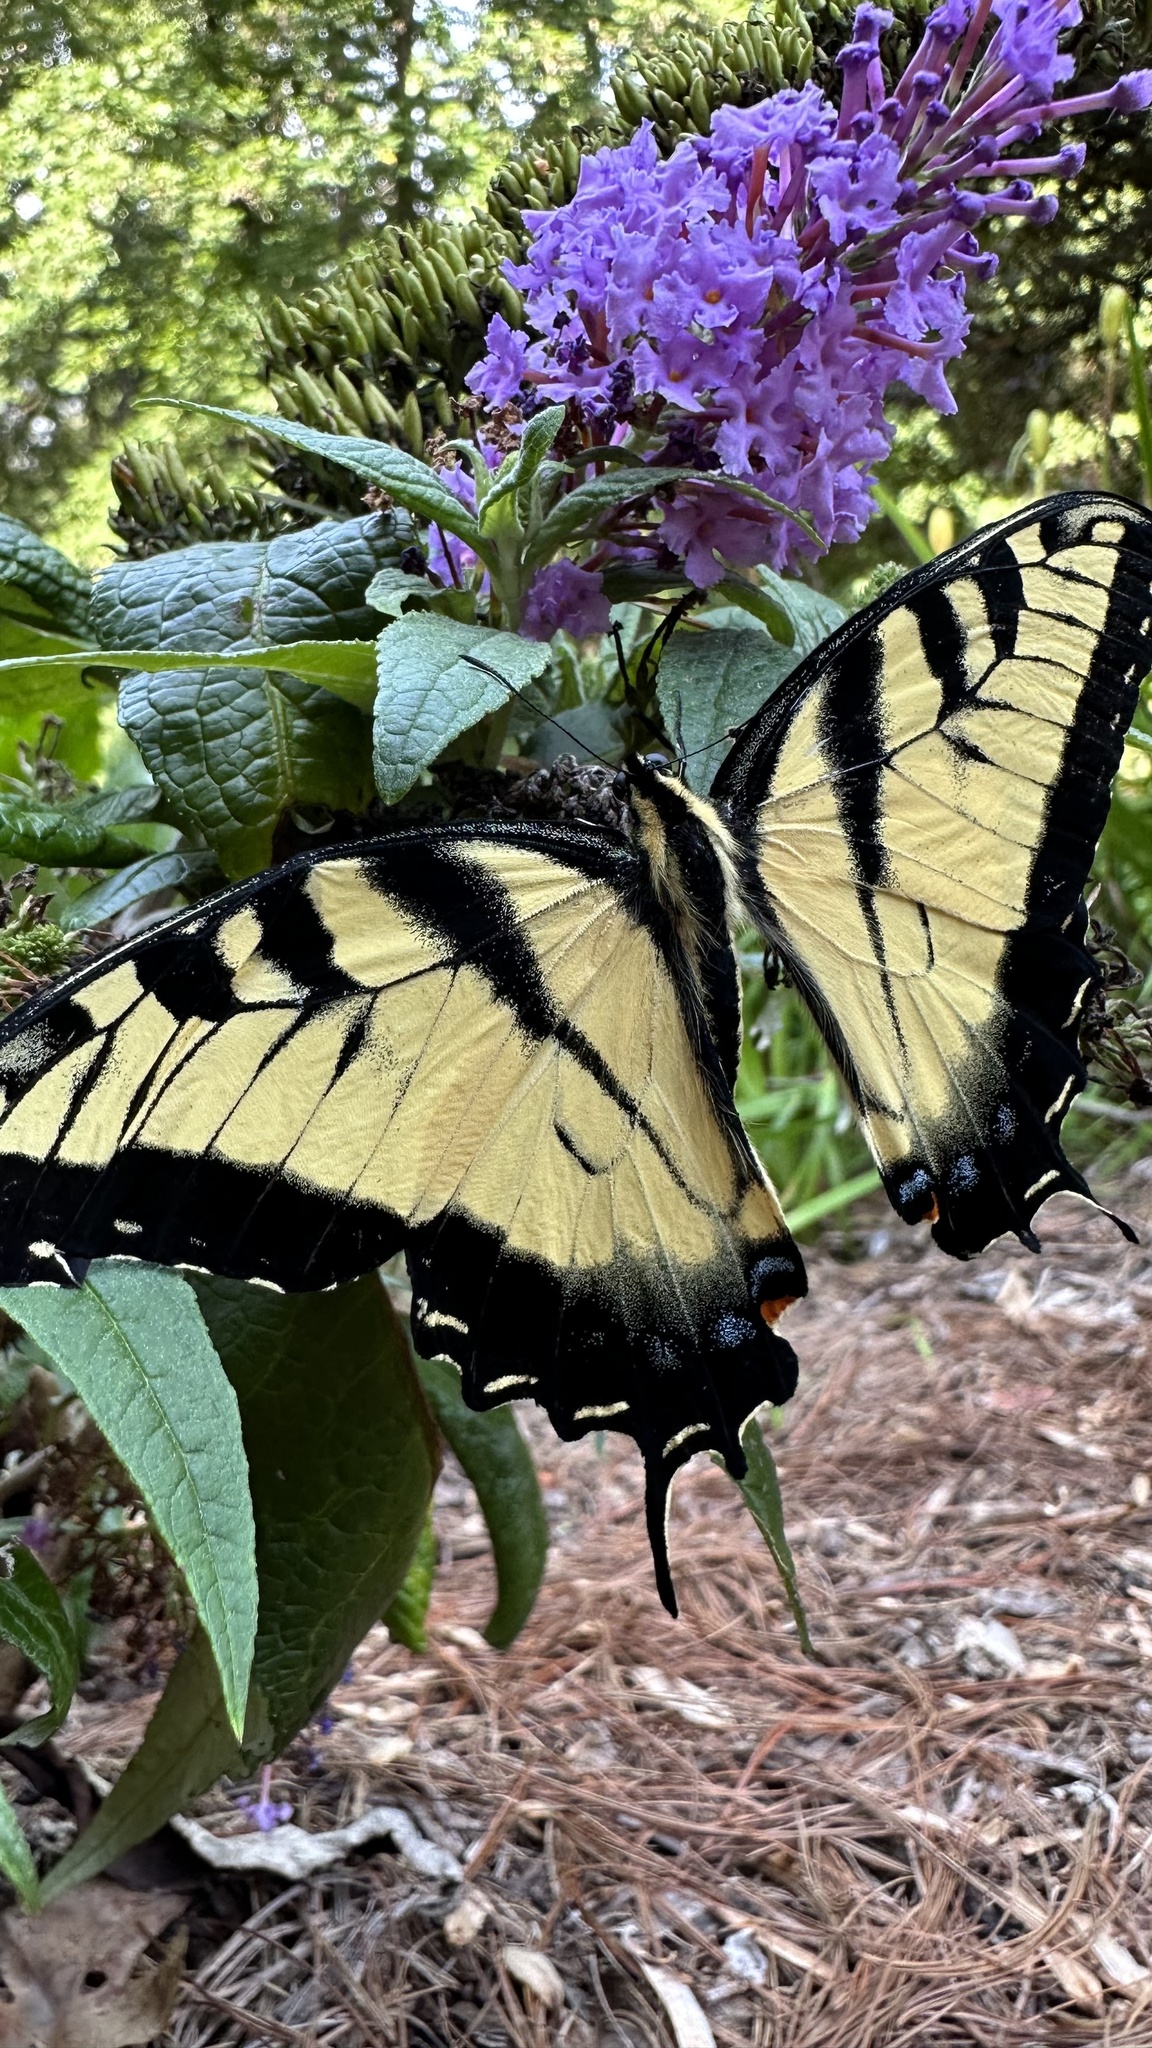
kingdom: Animalia
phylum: Arthropoda
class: Insecta
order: Lepidoptera
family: Papilionidae
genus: Papilio
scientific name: Papilio glaucus
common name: Tiger swallowtail
